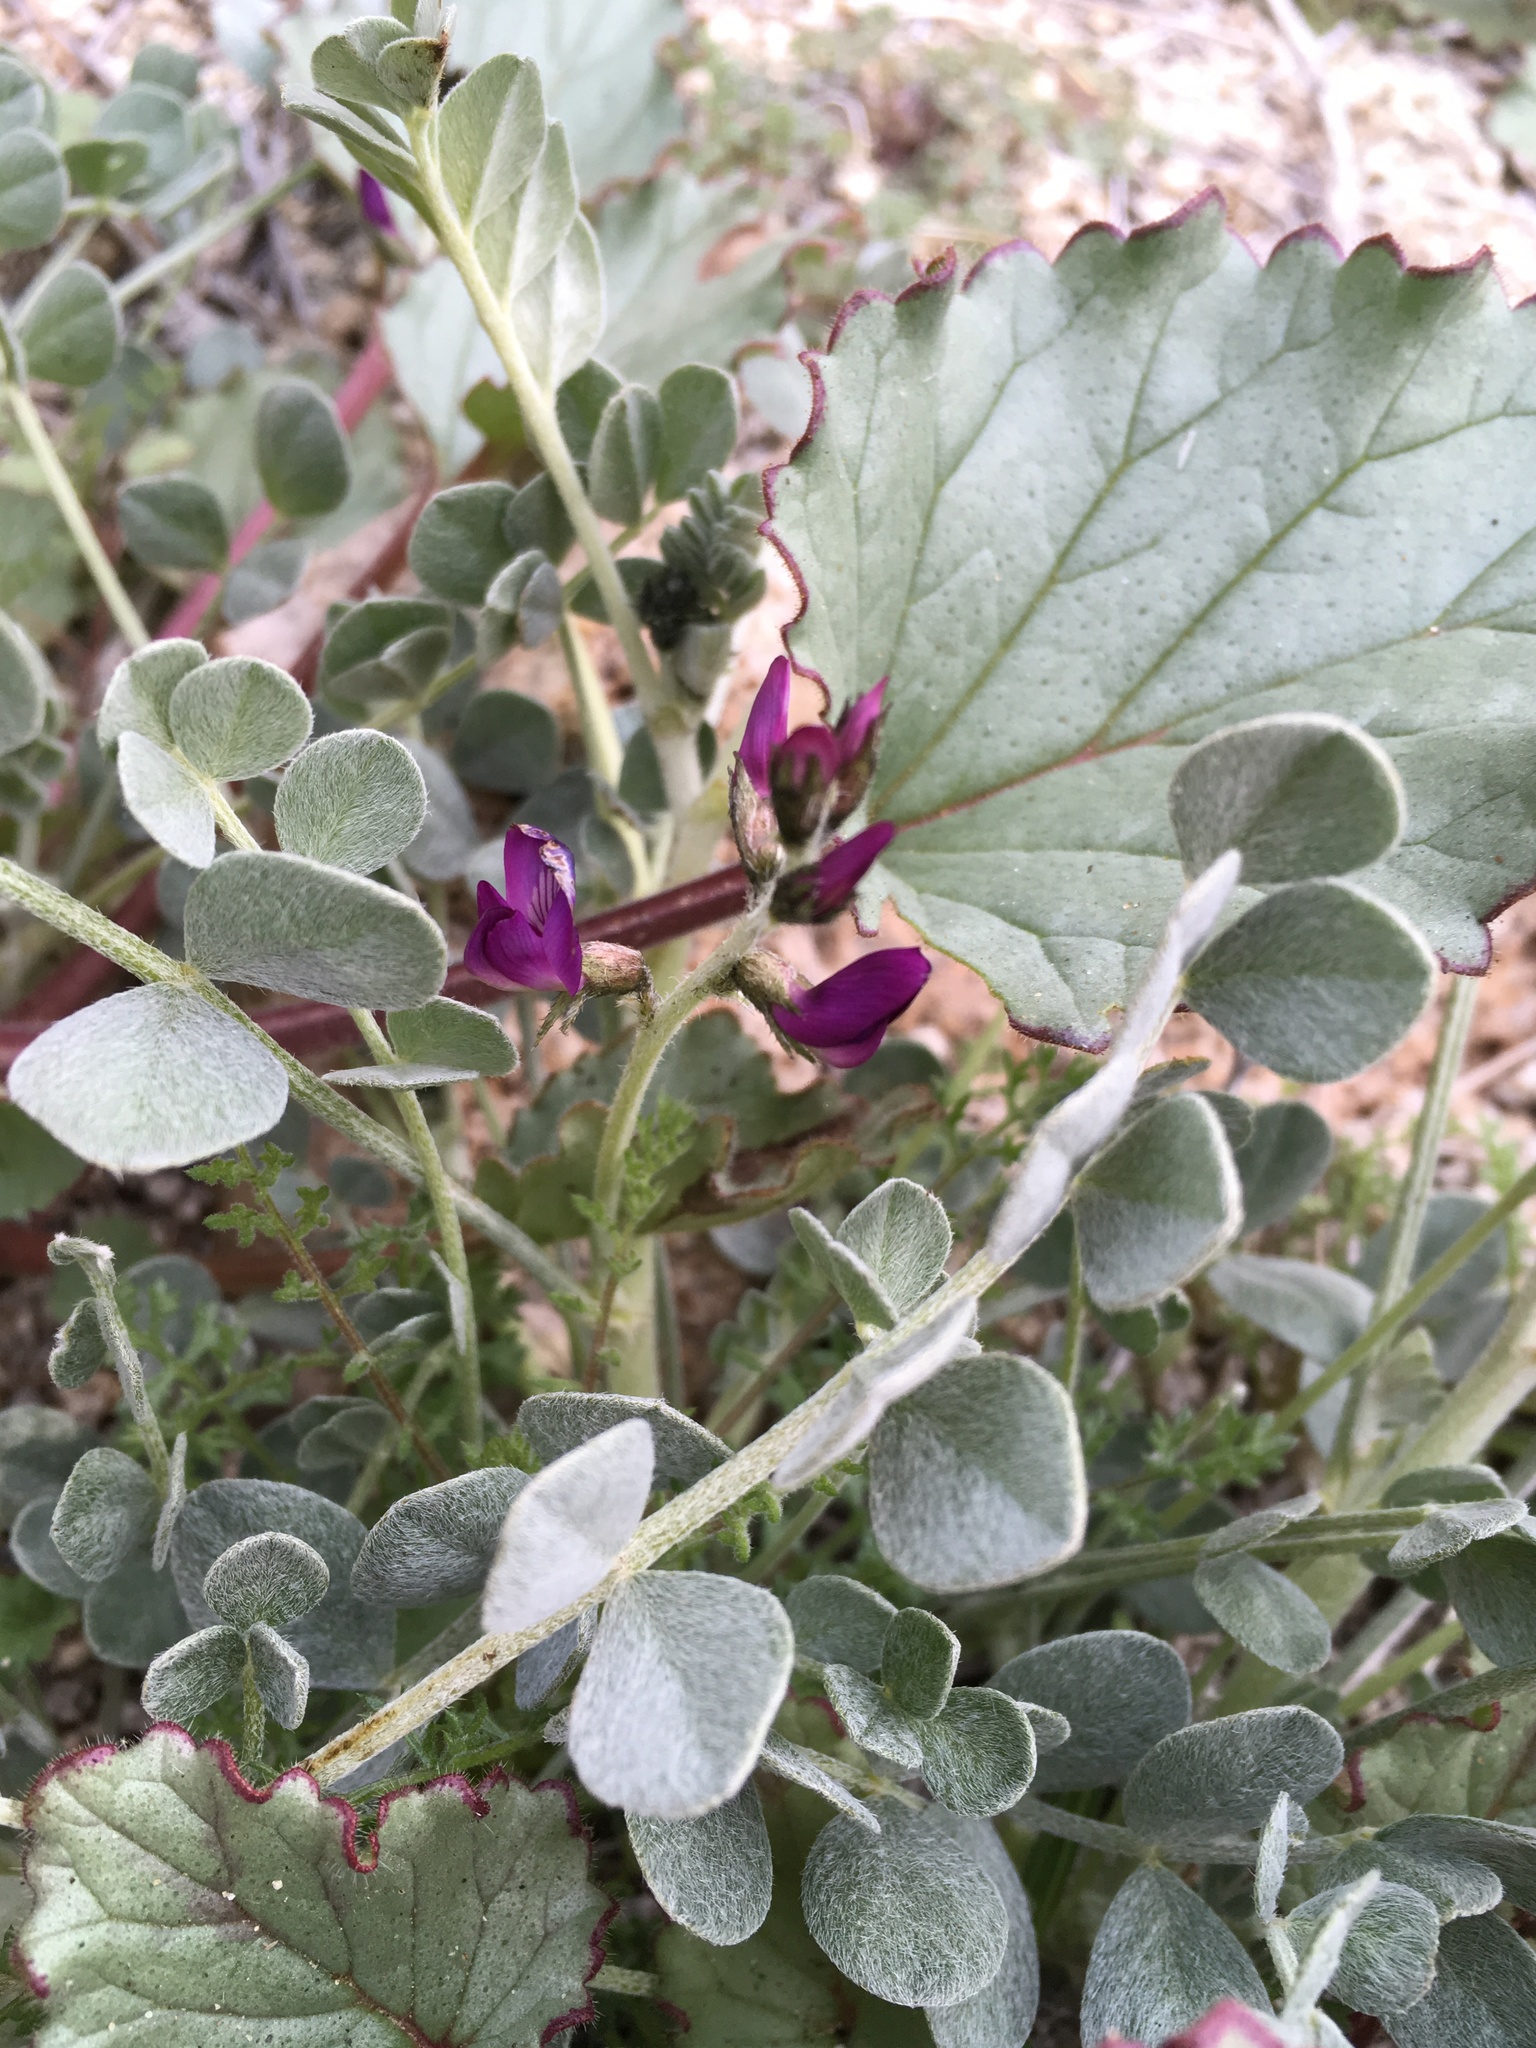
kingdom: Plantae
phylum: Tracheophyta
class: Magnoliopsida
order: Fabales
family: Fabaceae
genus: Astragalus
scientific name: Astragalus mohavensis
